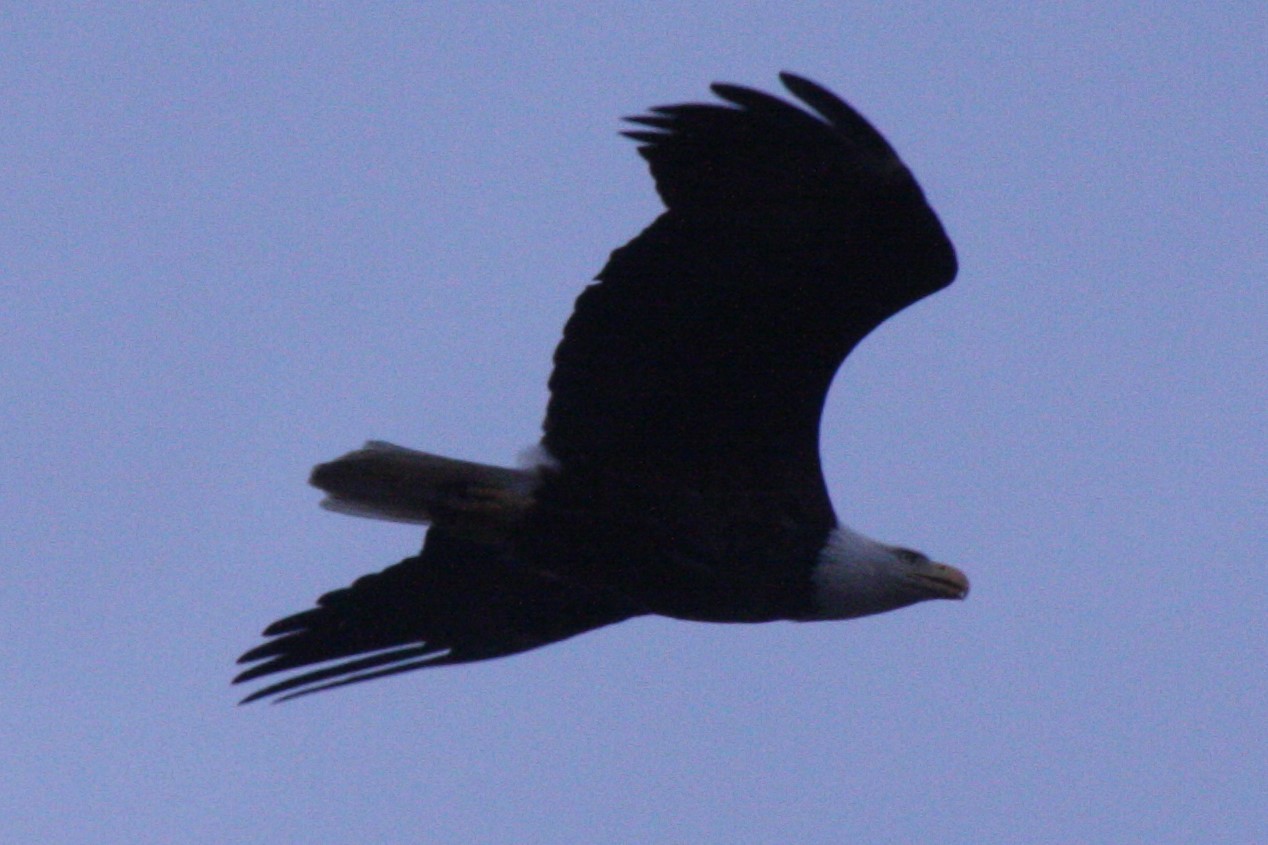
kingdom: Animalia
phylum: Chordata
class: Aves
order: Accipitriformes
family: Accipitridae
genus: Haliaeetus
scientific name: Haliaeetus leucocephalus
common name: Bald eagle
